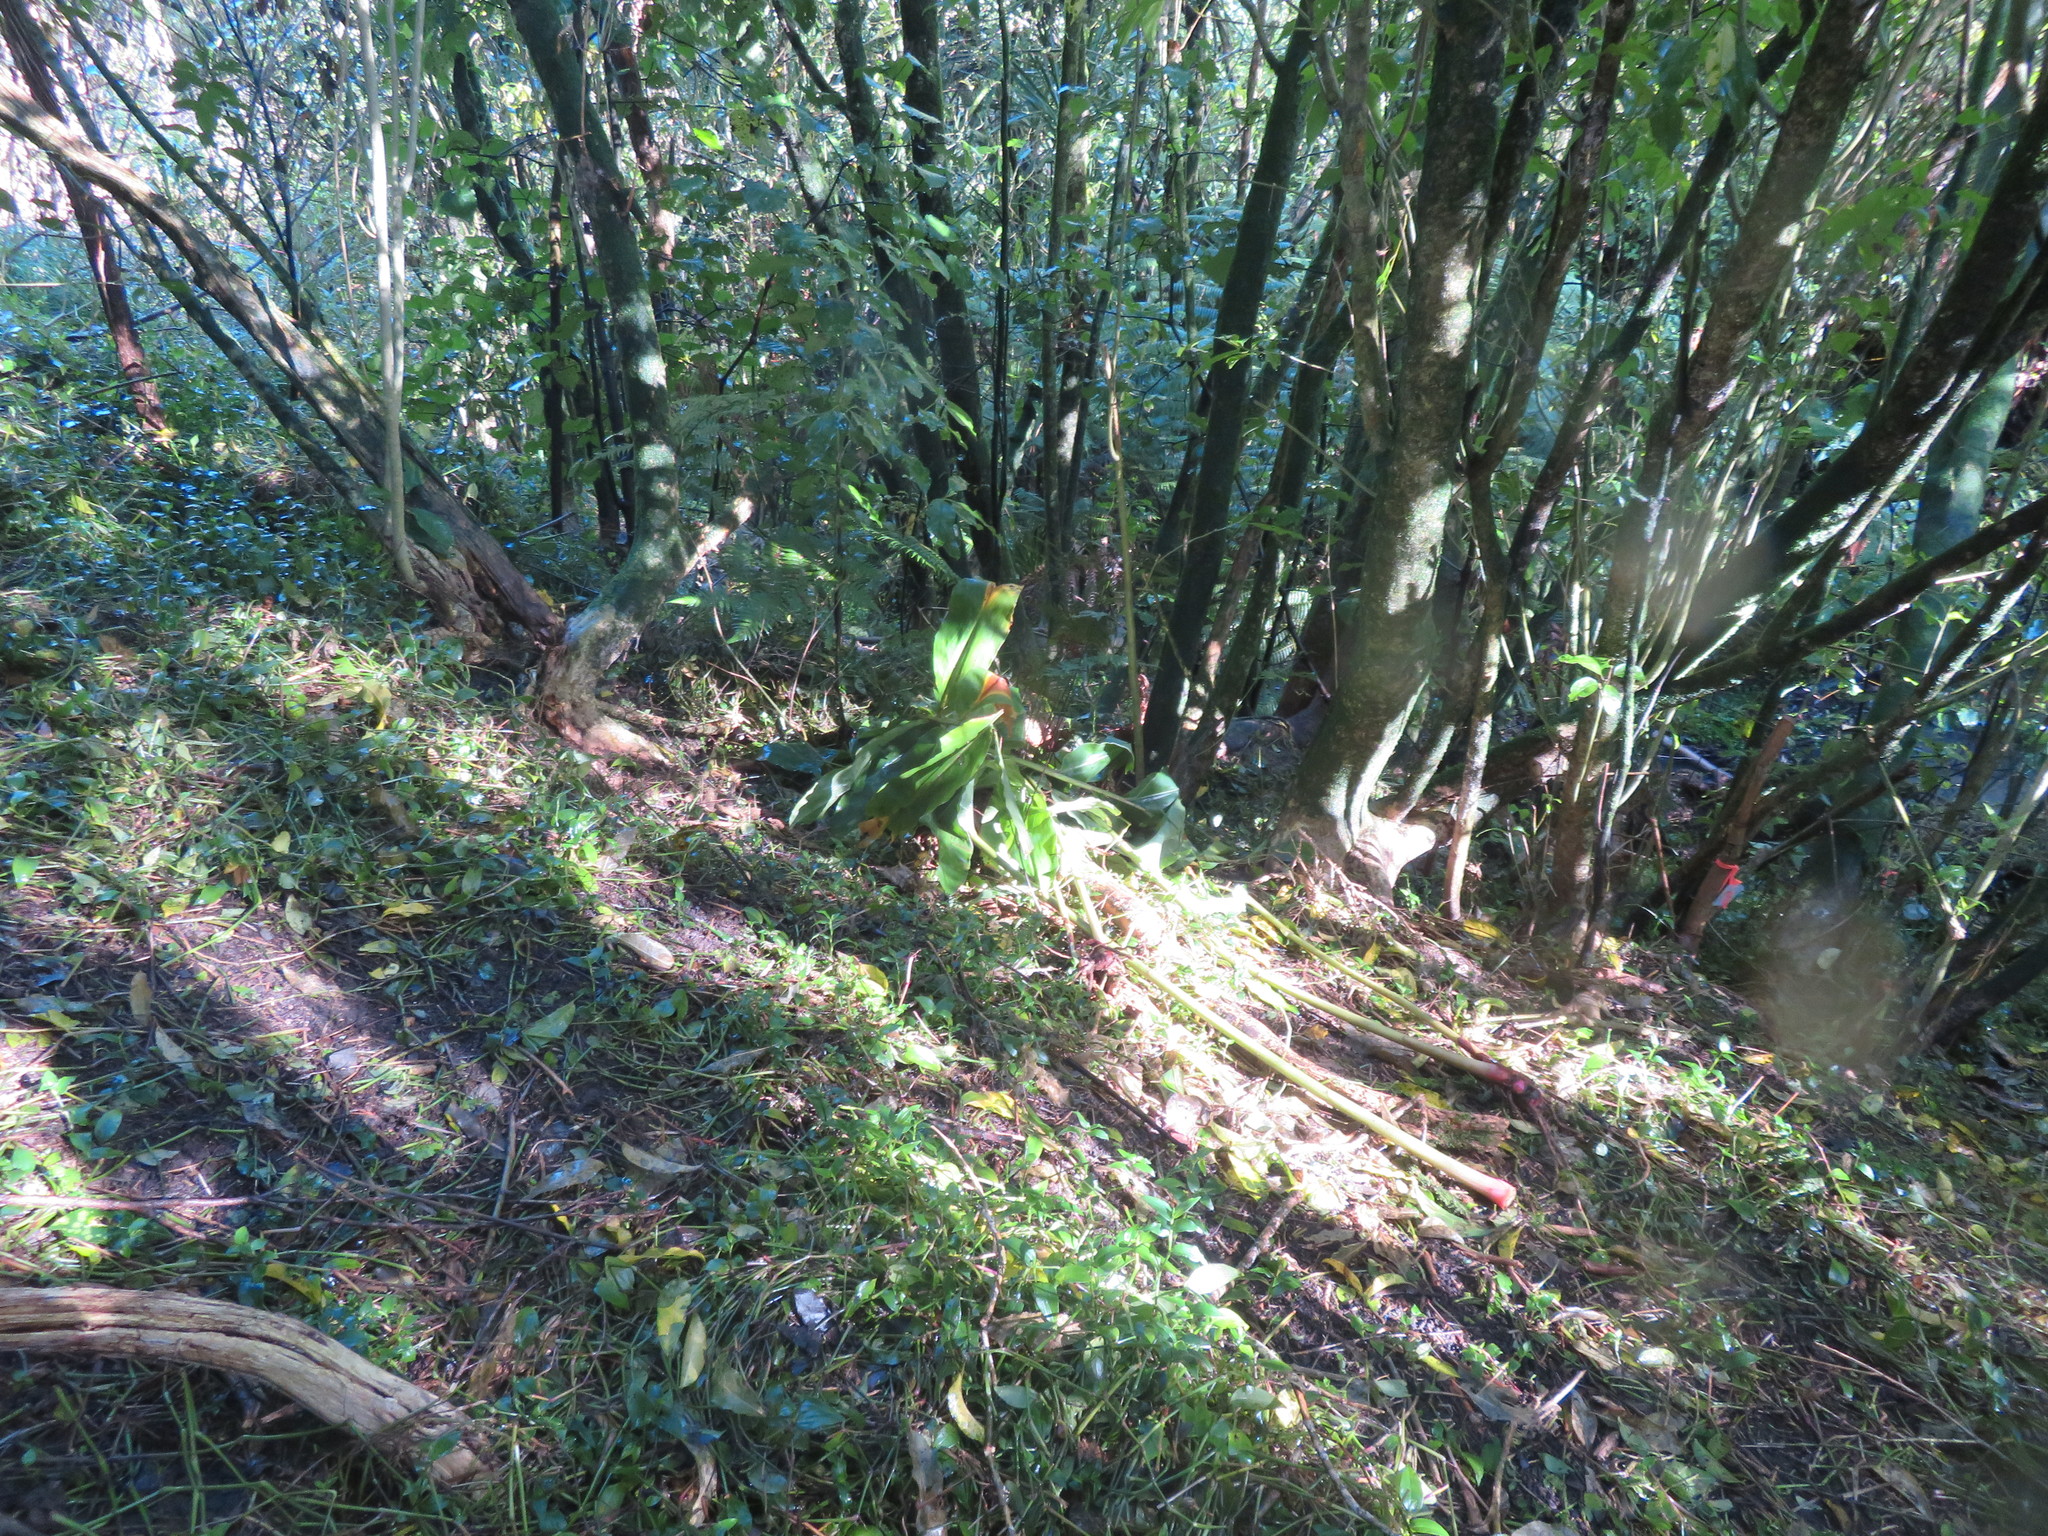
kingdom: Plantae
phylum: Tracheophyta
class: Liliopsida
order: Zingiberales
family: Zingiberaceae
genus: Hedychium
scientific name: Hedychium gardnerianum
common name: Himalayan ginger
